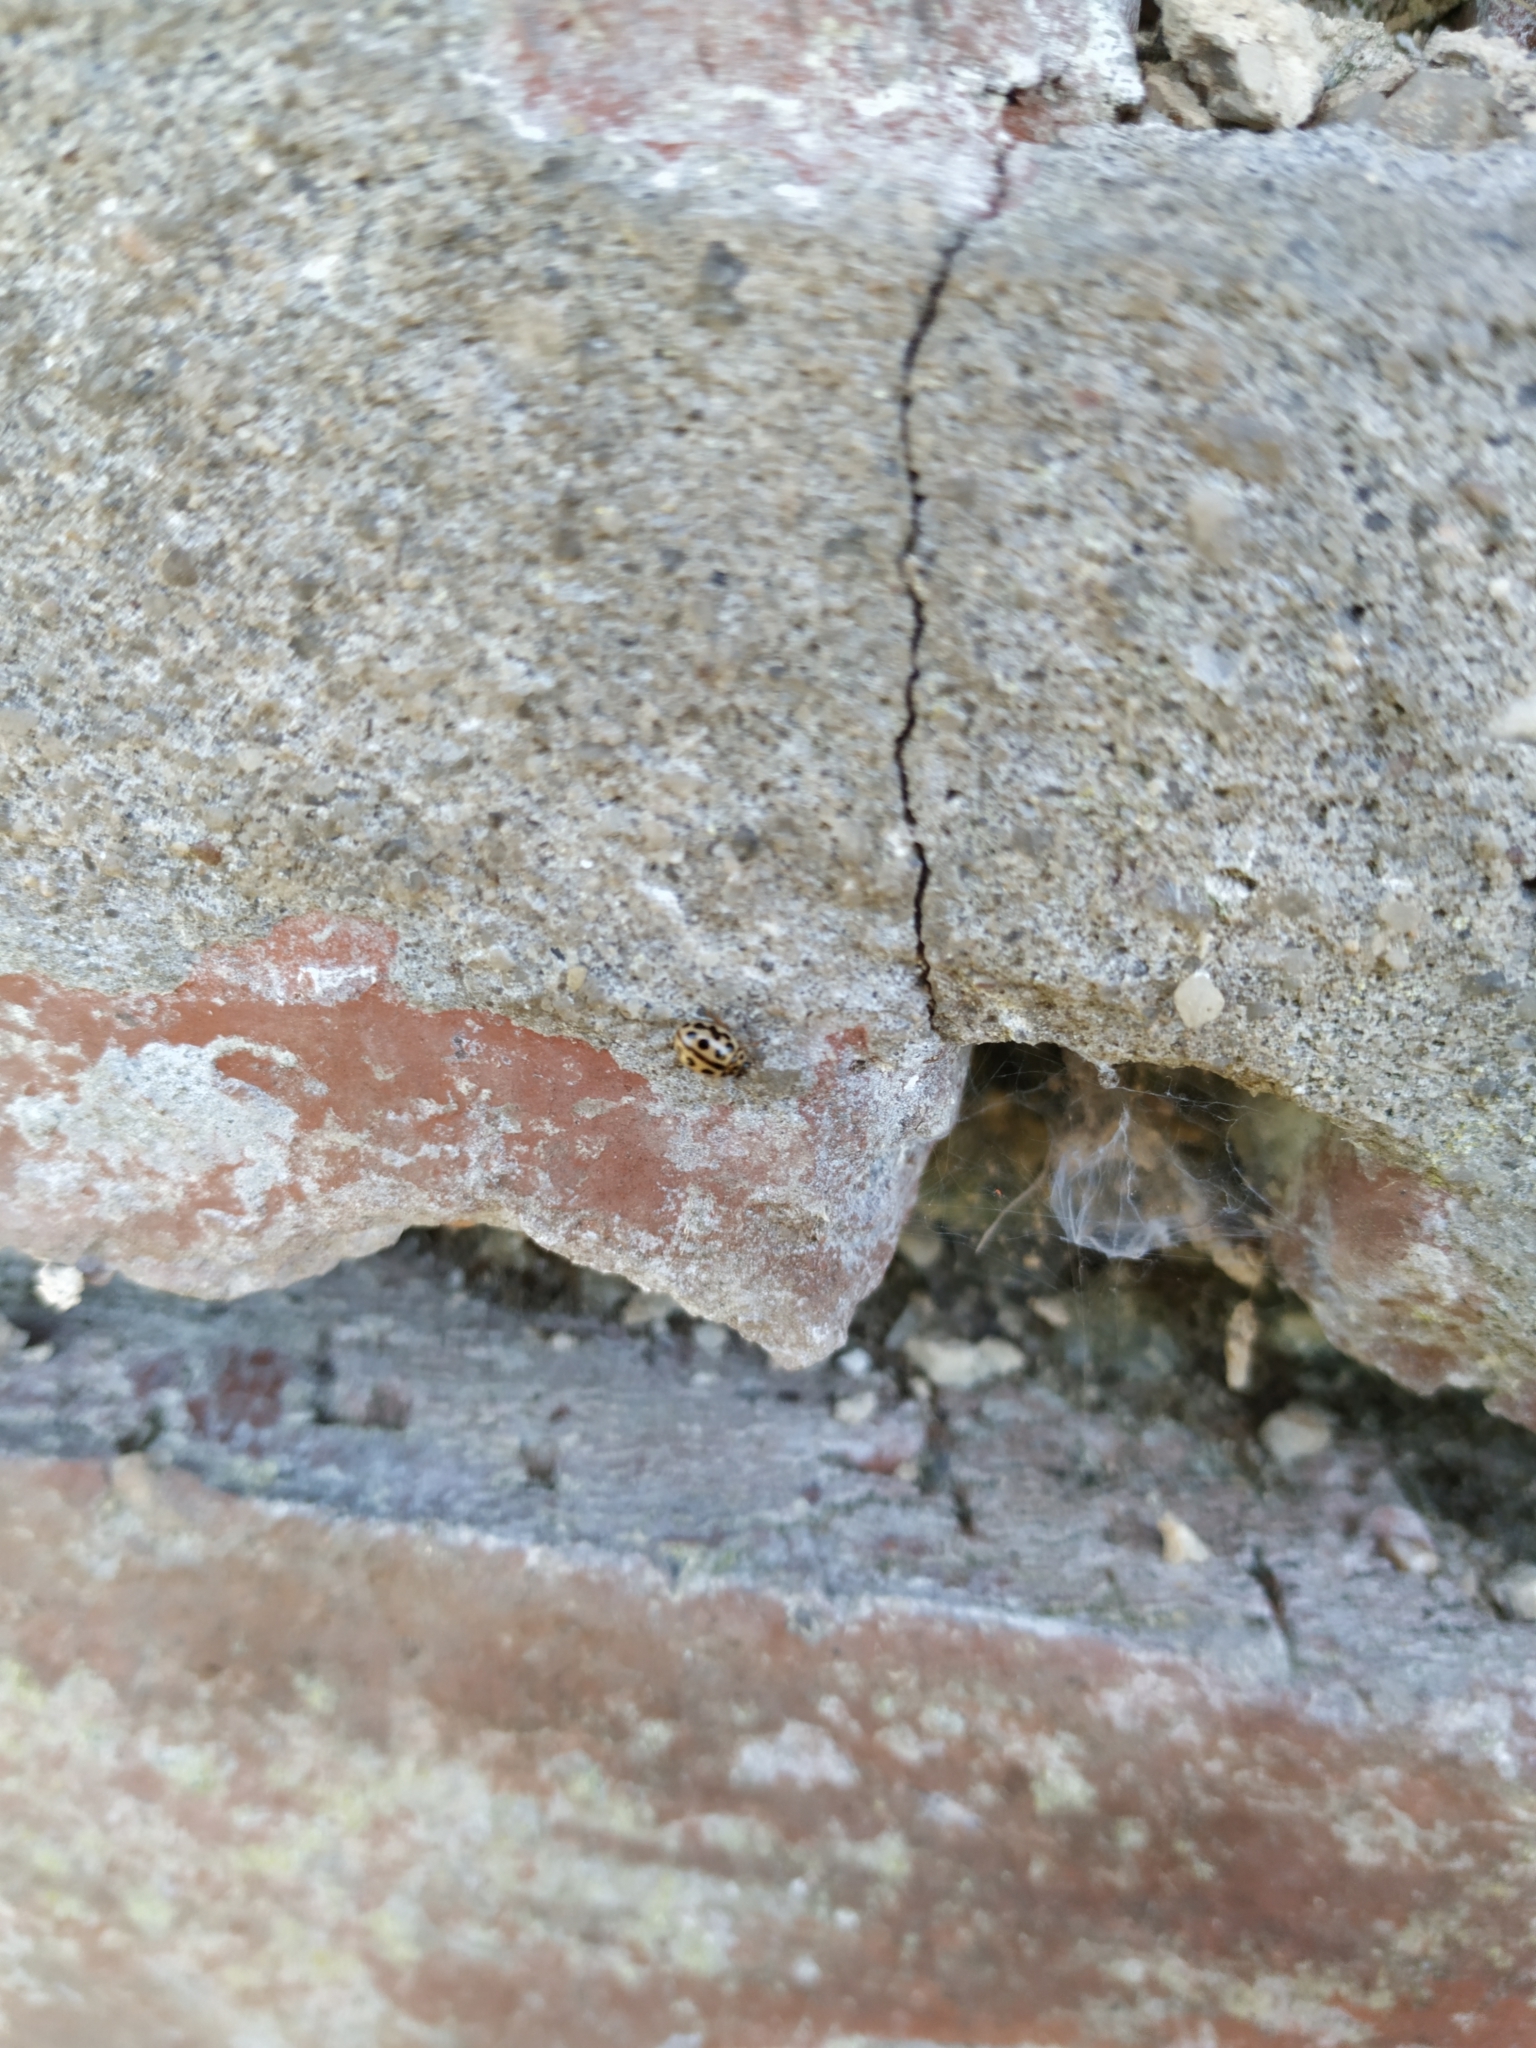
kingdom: Animalia
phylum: Arthropoda
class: Insecta
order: Coleoptera
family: Coccinellidae
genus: Tytthaspis
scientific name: Tytthaspis sedecimpunctata
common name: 16-spot ladybird
